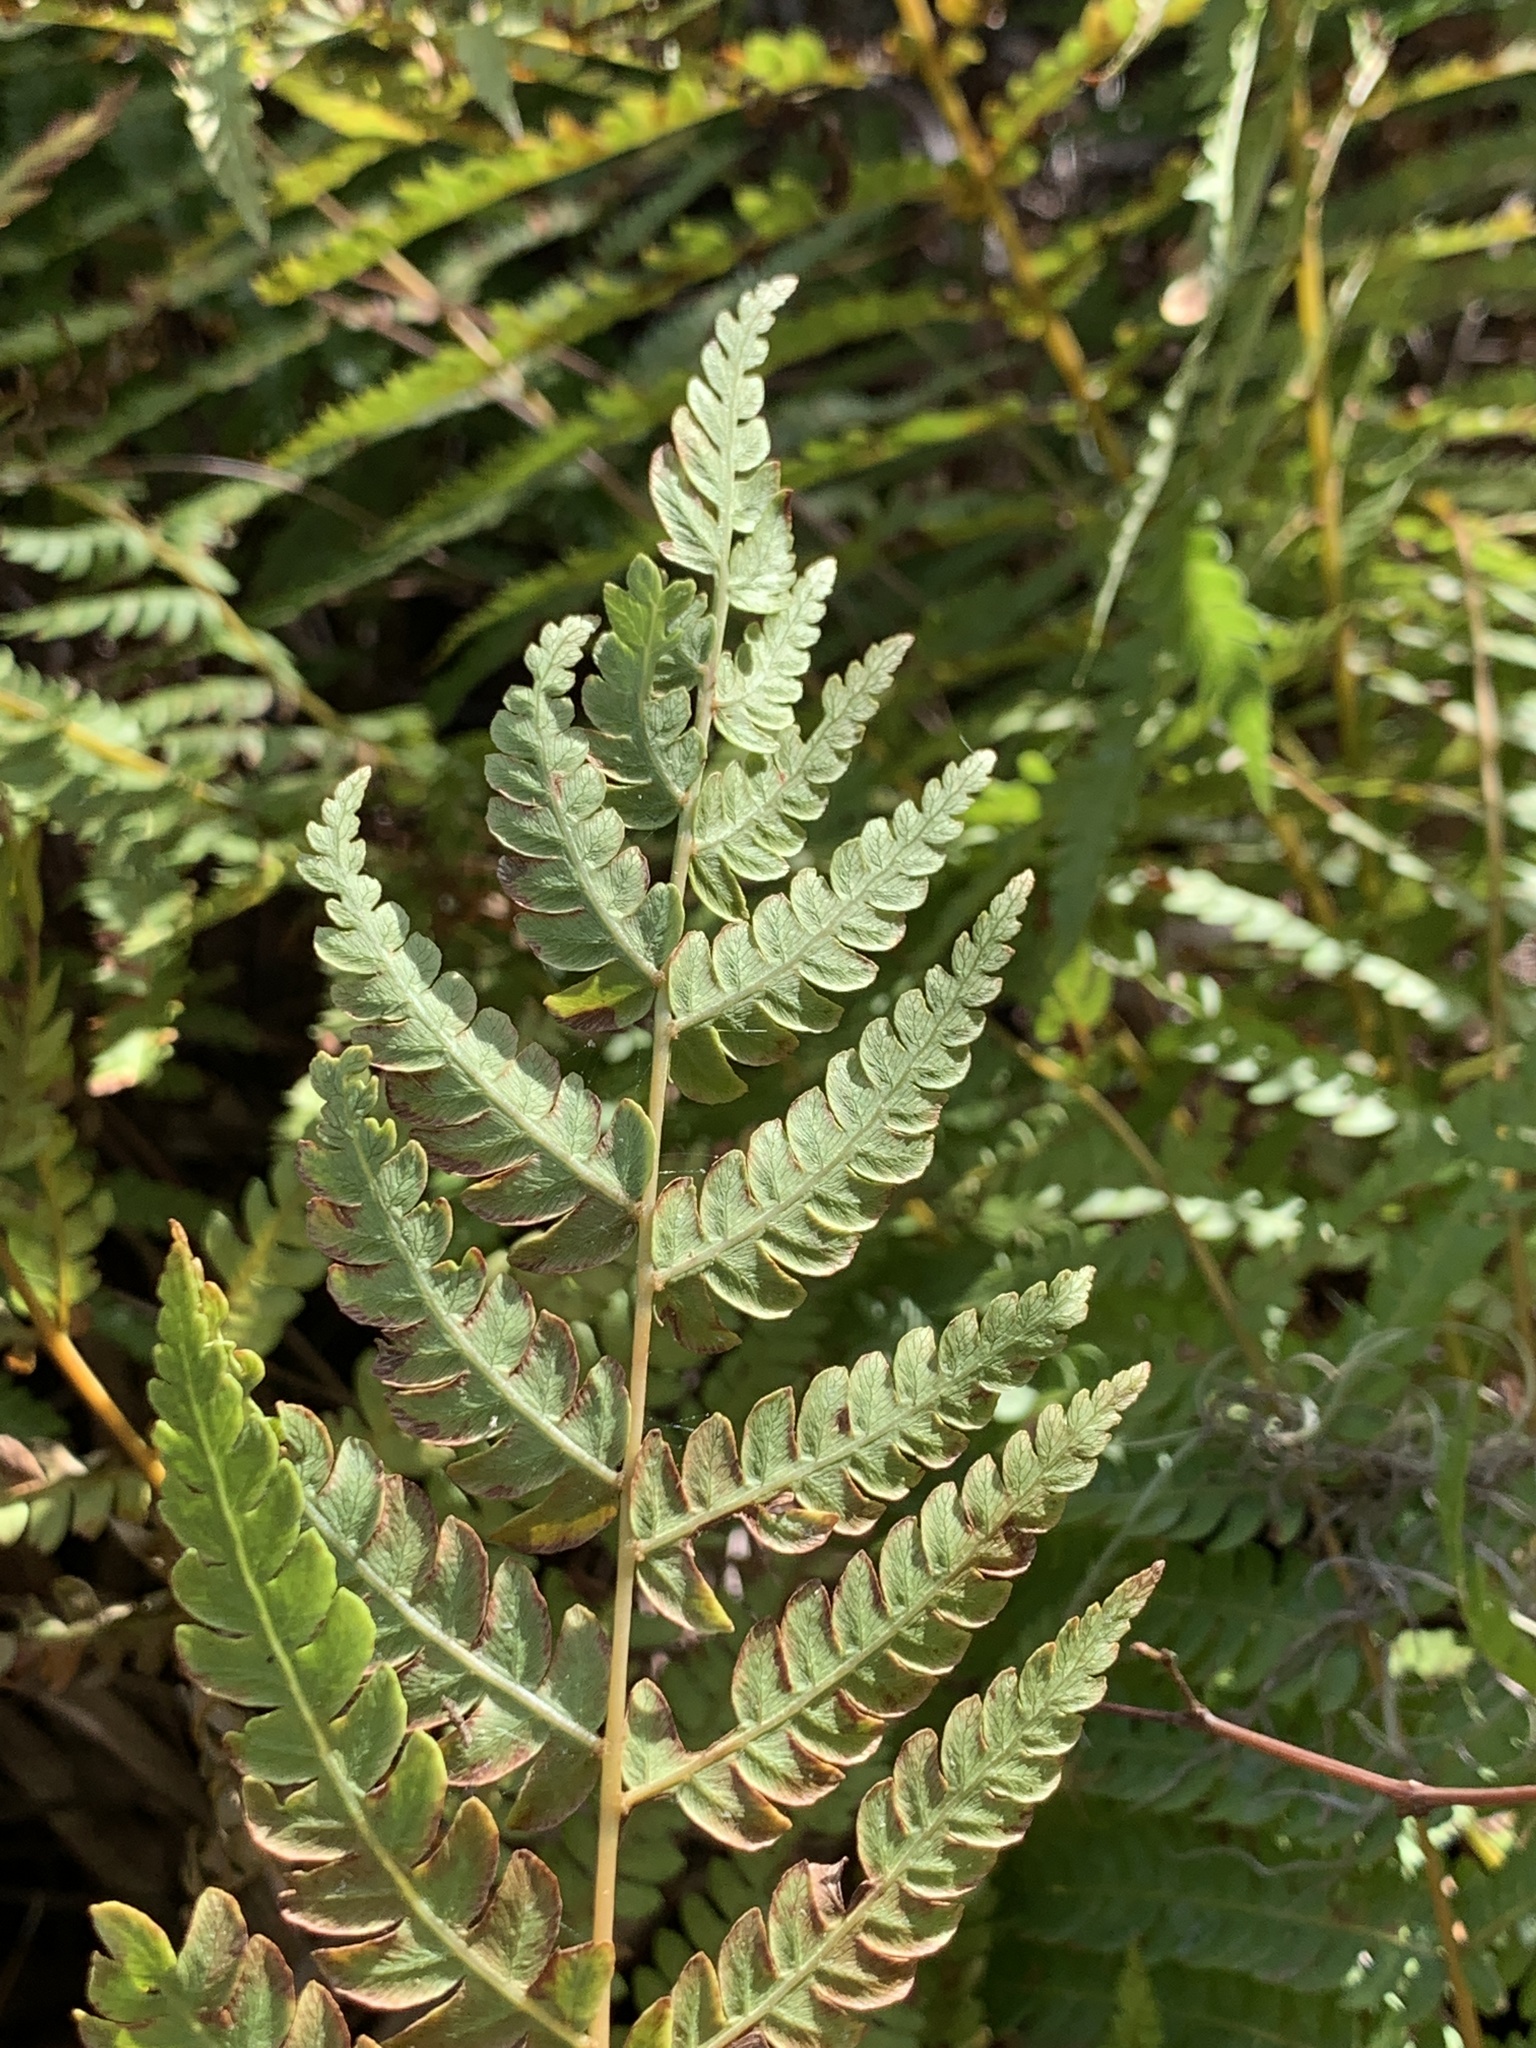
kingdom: Plantae
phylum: Tracheophyta
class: Polypodiopsida
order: Osmundales
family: Osmundaceae
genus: Osmundastrum
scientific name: Osmundastrum cinnamomeum
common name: Cinnamon fern
